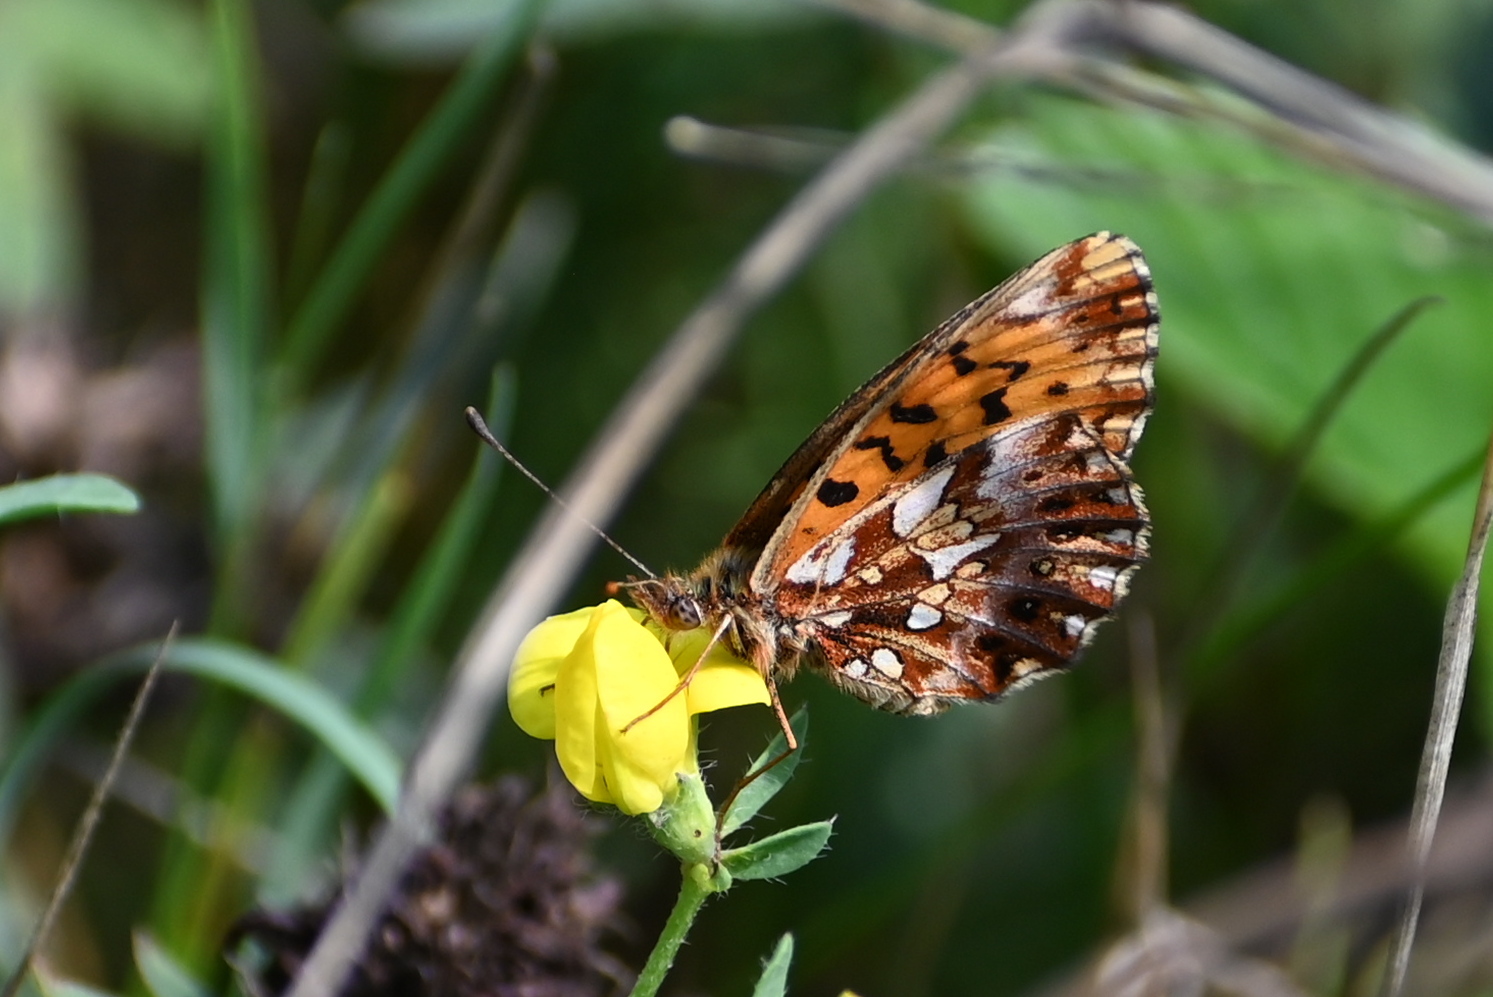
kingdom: Animalia
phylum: Arthropoda
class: Insecta
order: Lepidoptera
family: Nymphalidae
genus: Boloria
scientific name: Boloria dia
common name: Weaver's fritillary
